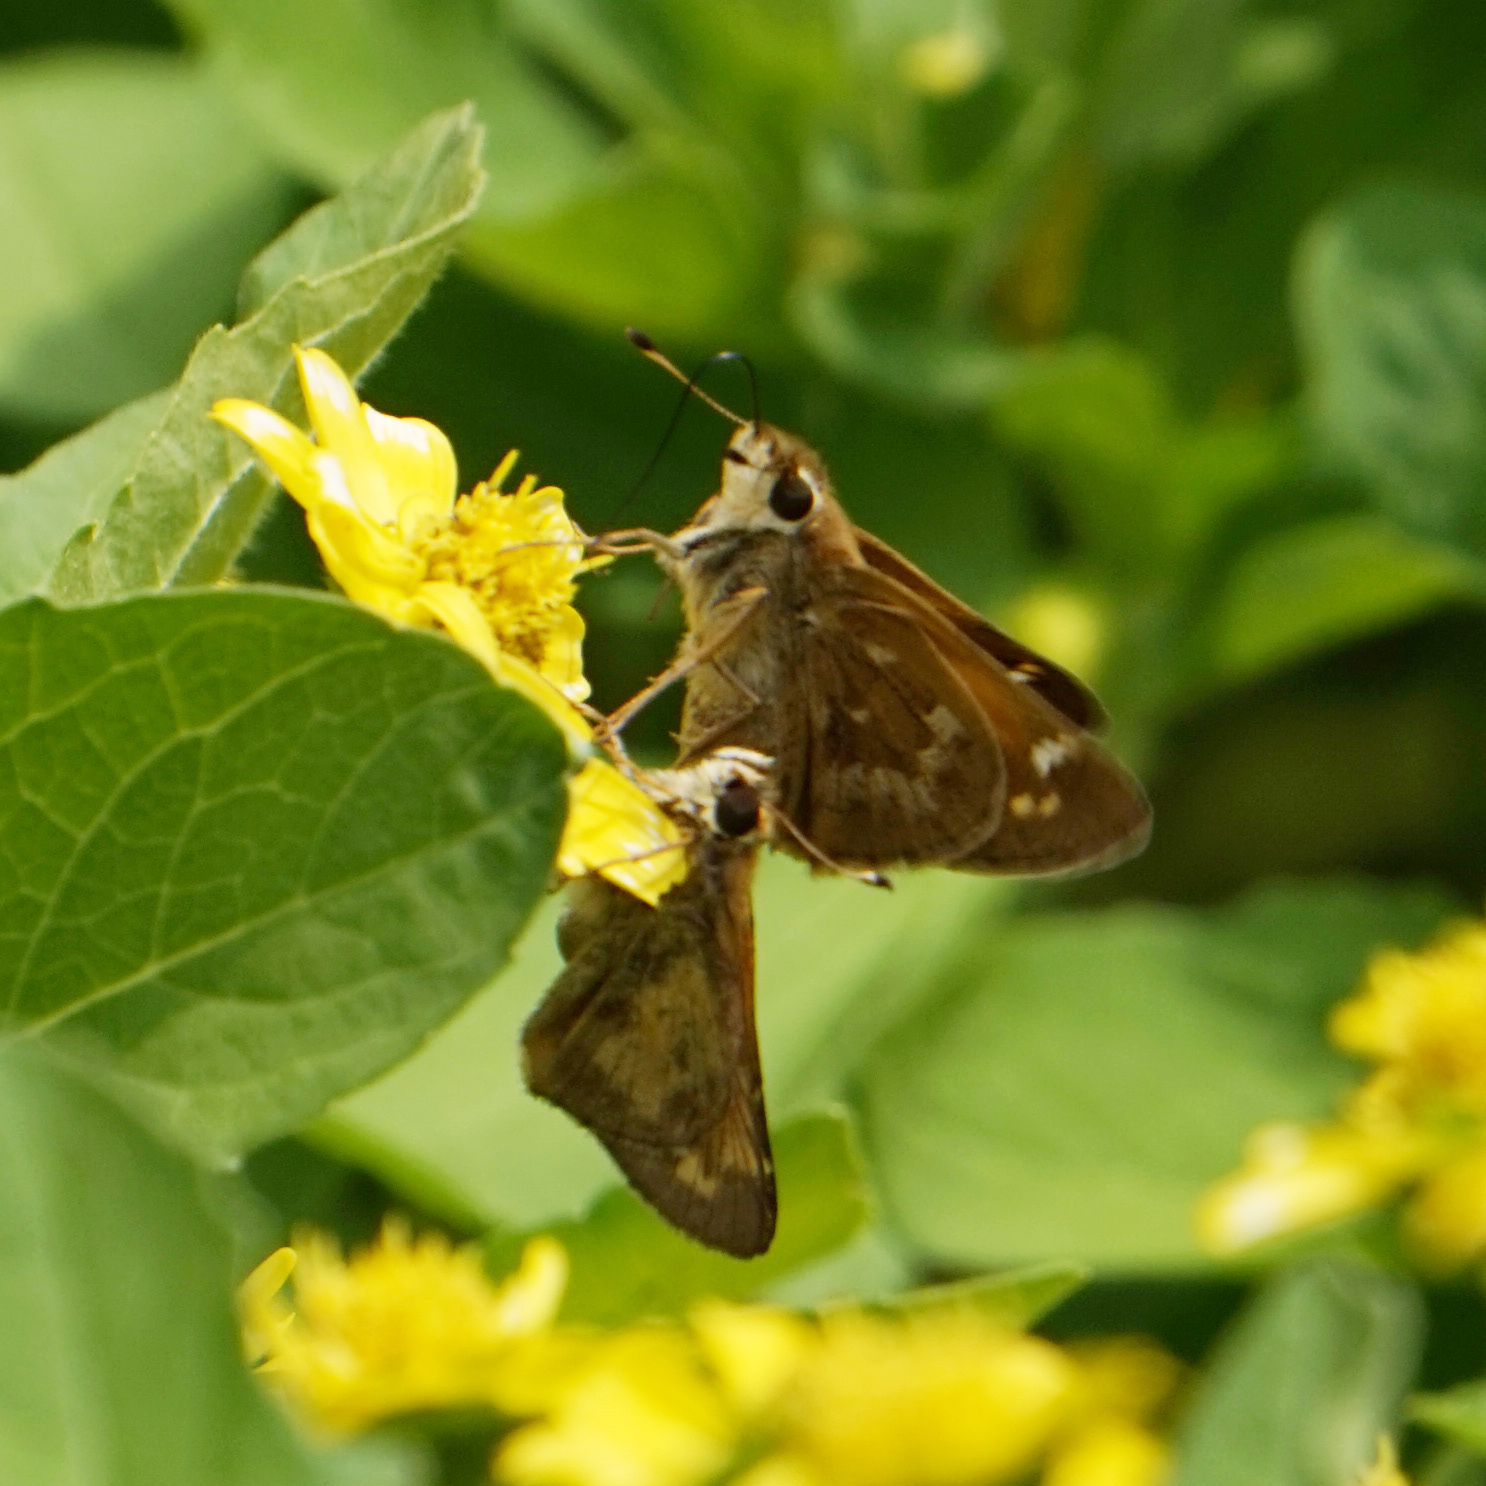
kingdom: Animalia
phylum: Arthropoda
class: Insecta
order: Lepidoptera
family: Hesperiidae
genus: Atalopedes
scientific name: Atalopedes
